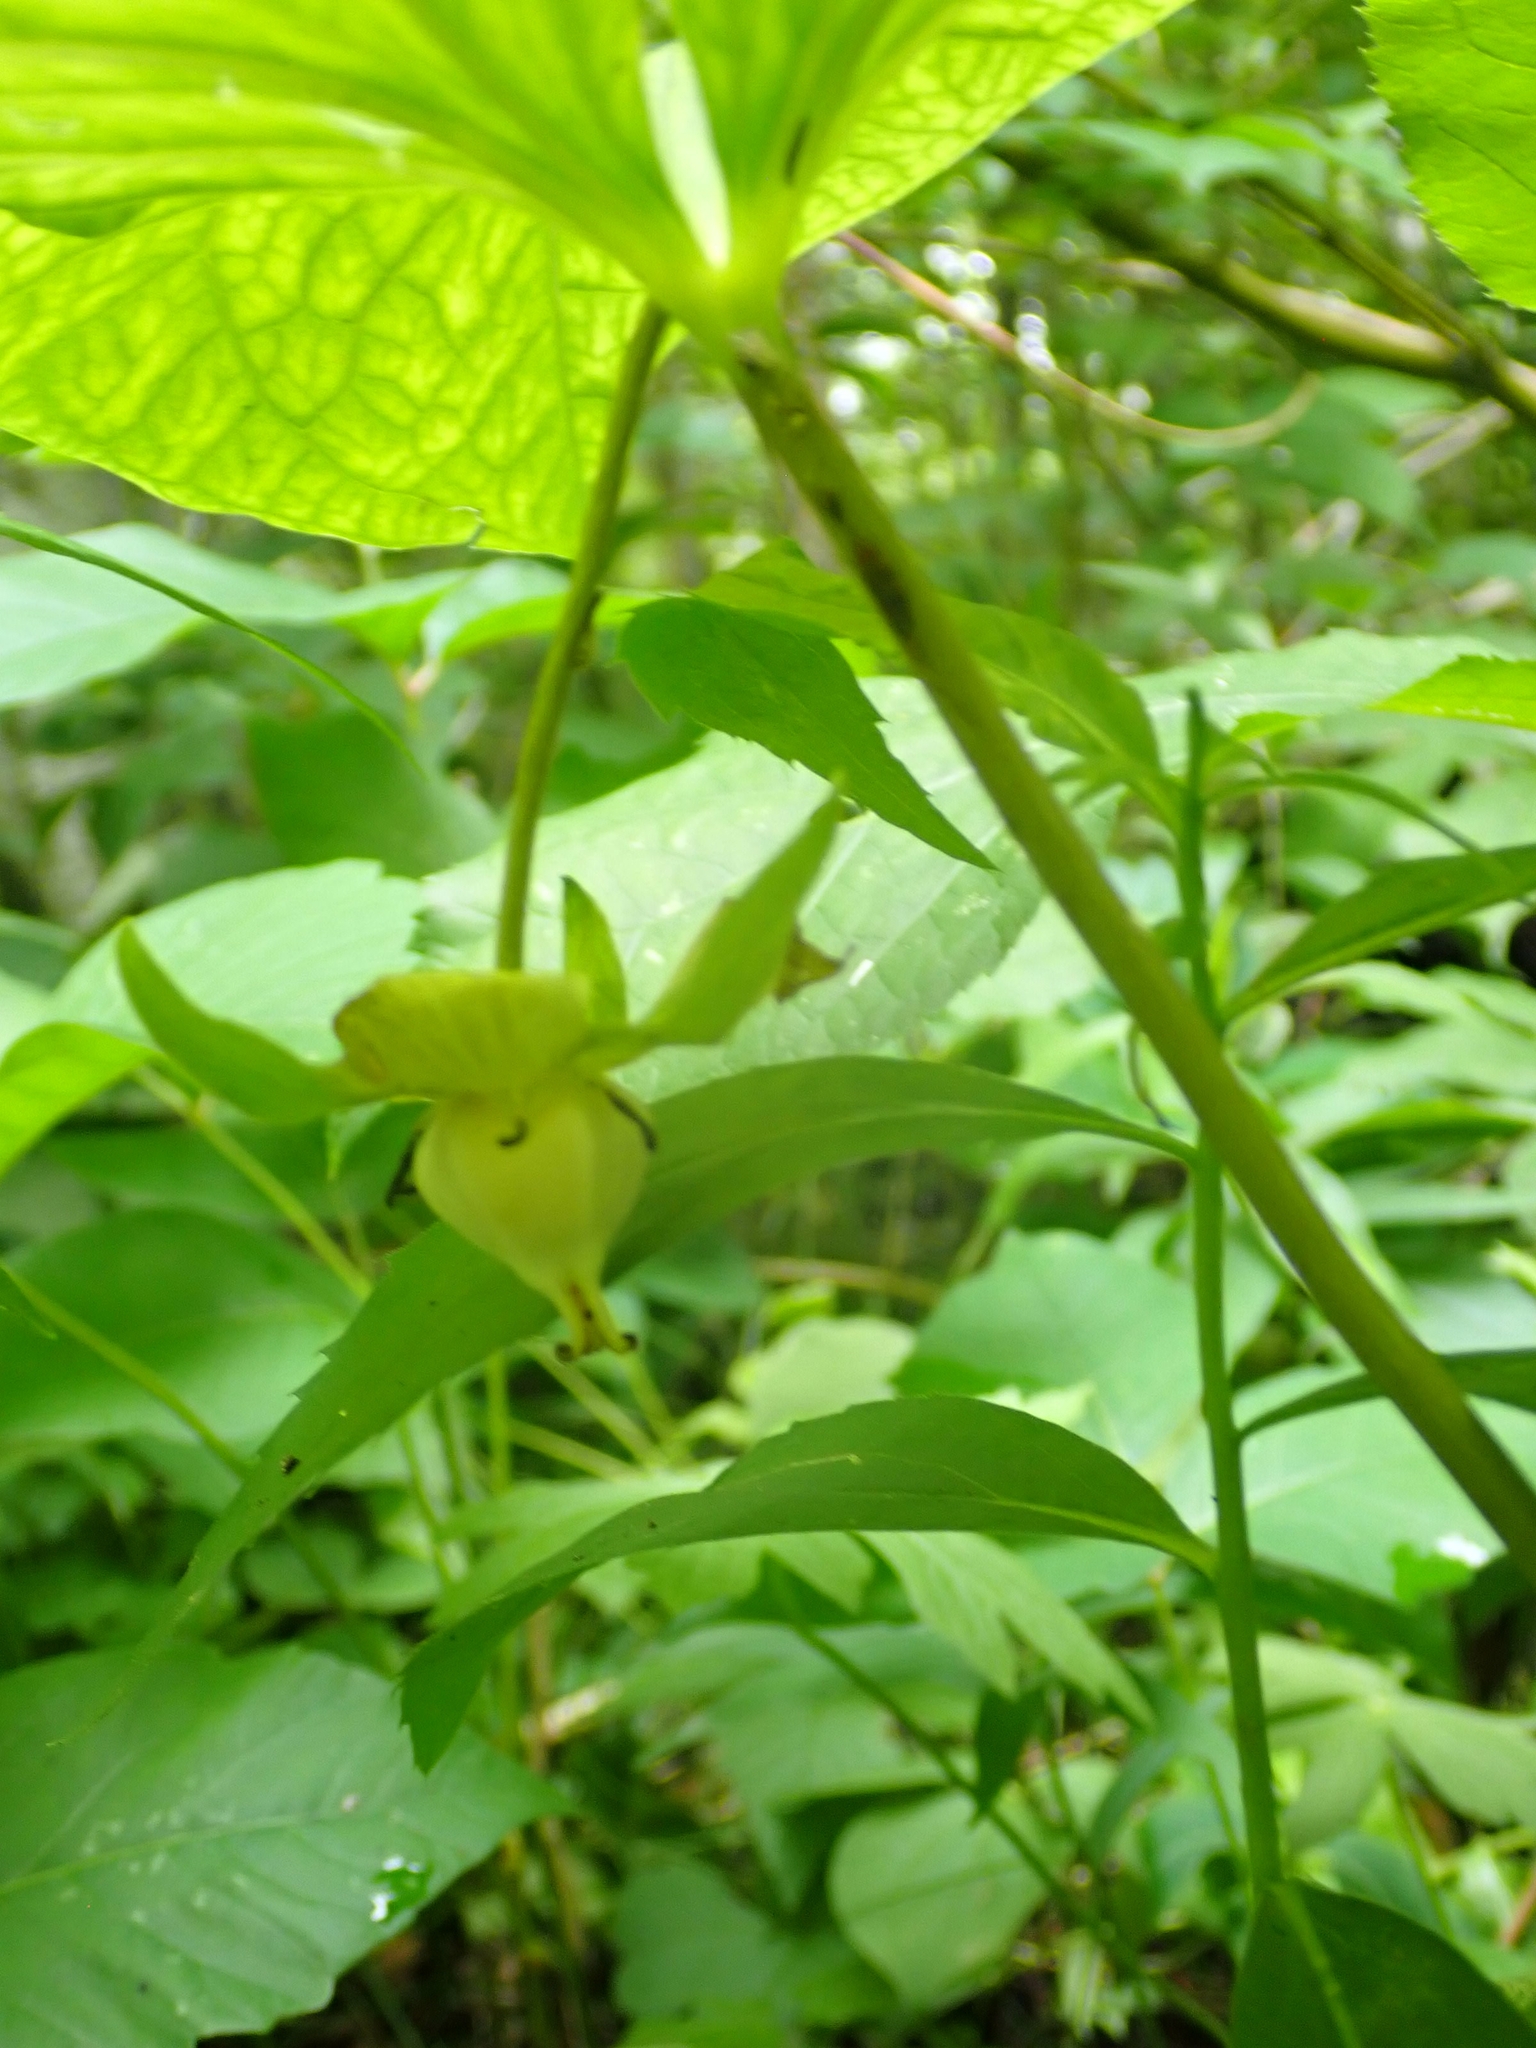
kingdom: Plantae
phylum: Tracheophyta
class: Liliopsida
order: Liliales
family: Melanthiaceae
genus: Trillium
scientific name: Trillium cernuum
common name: Nodding trillium
